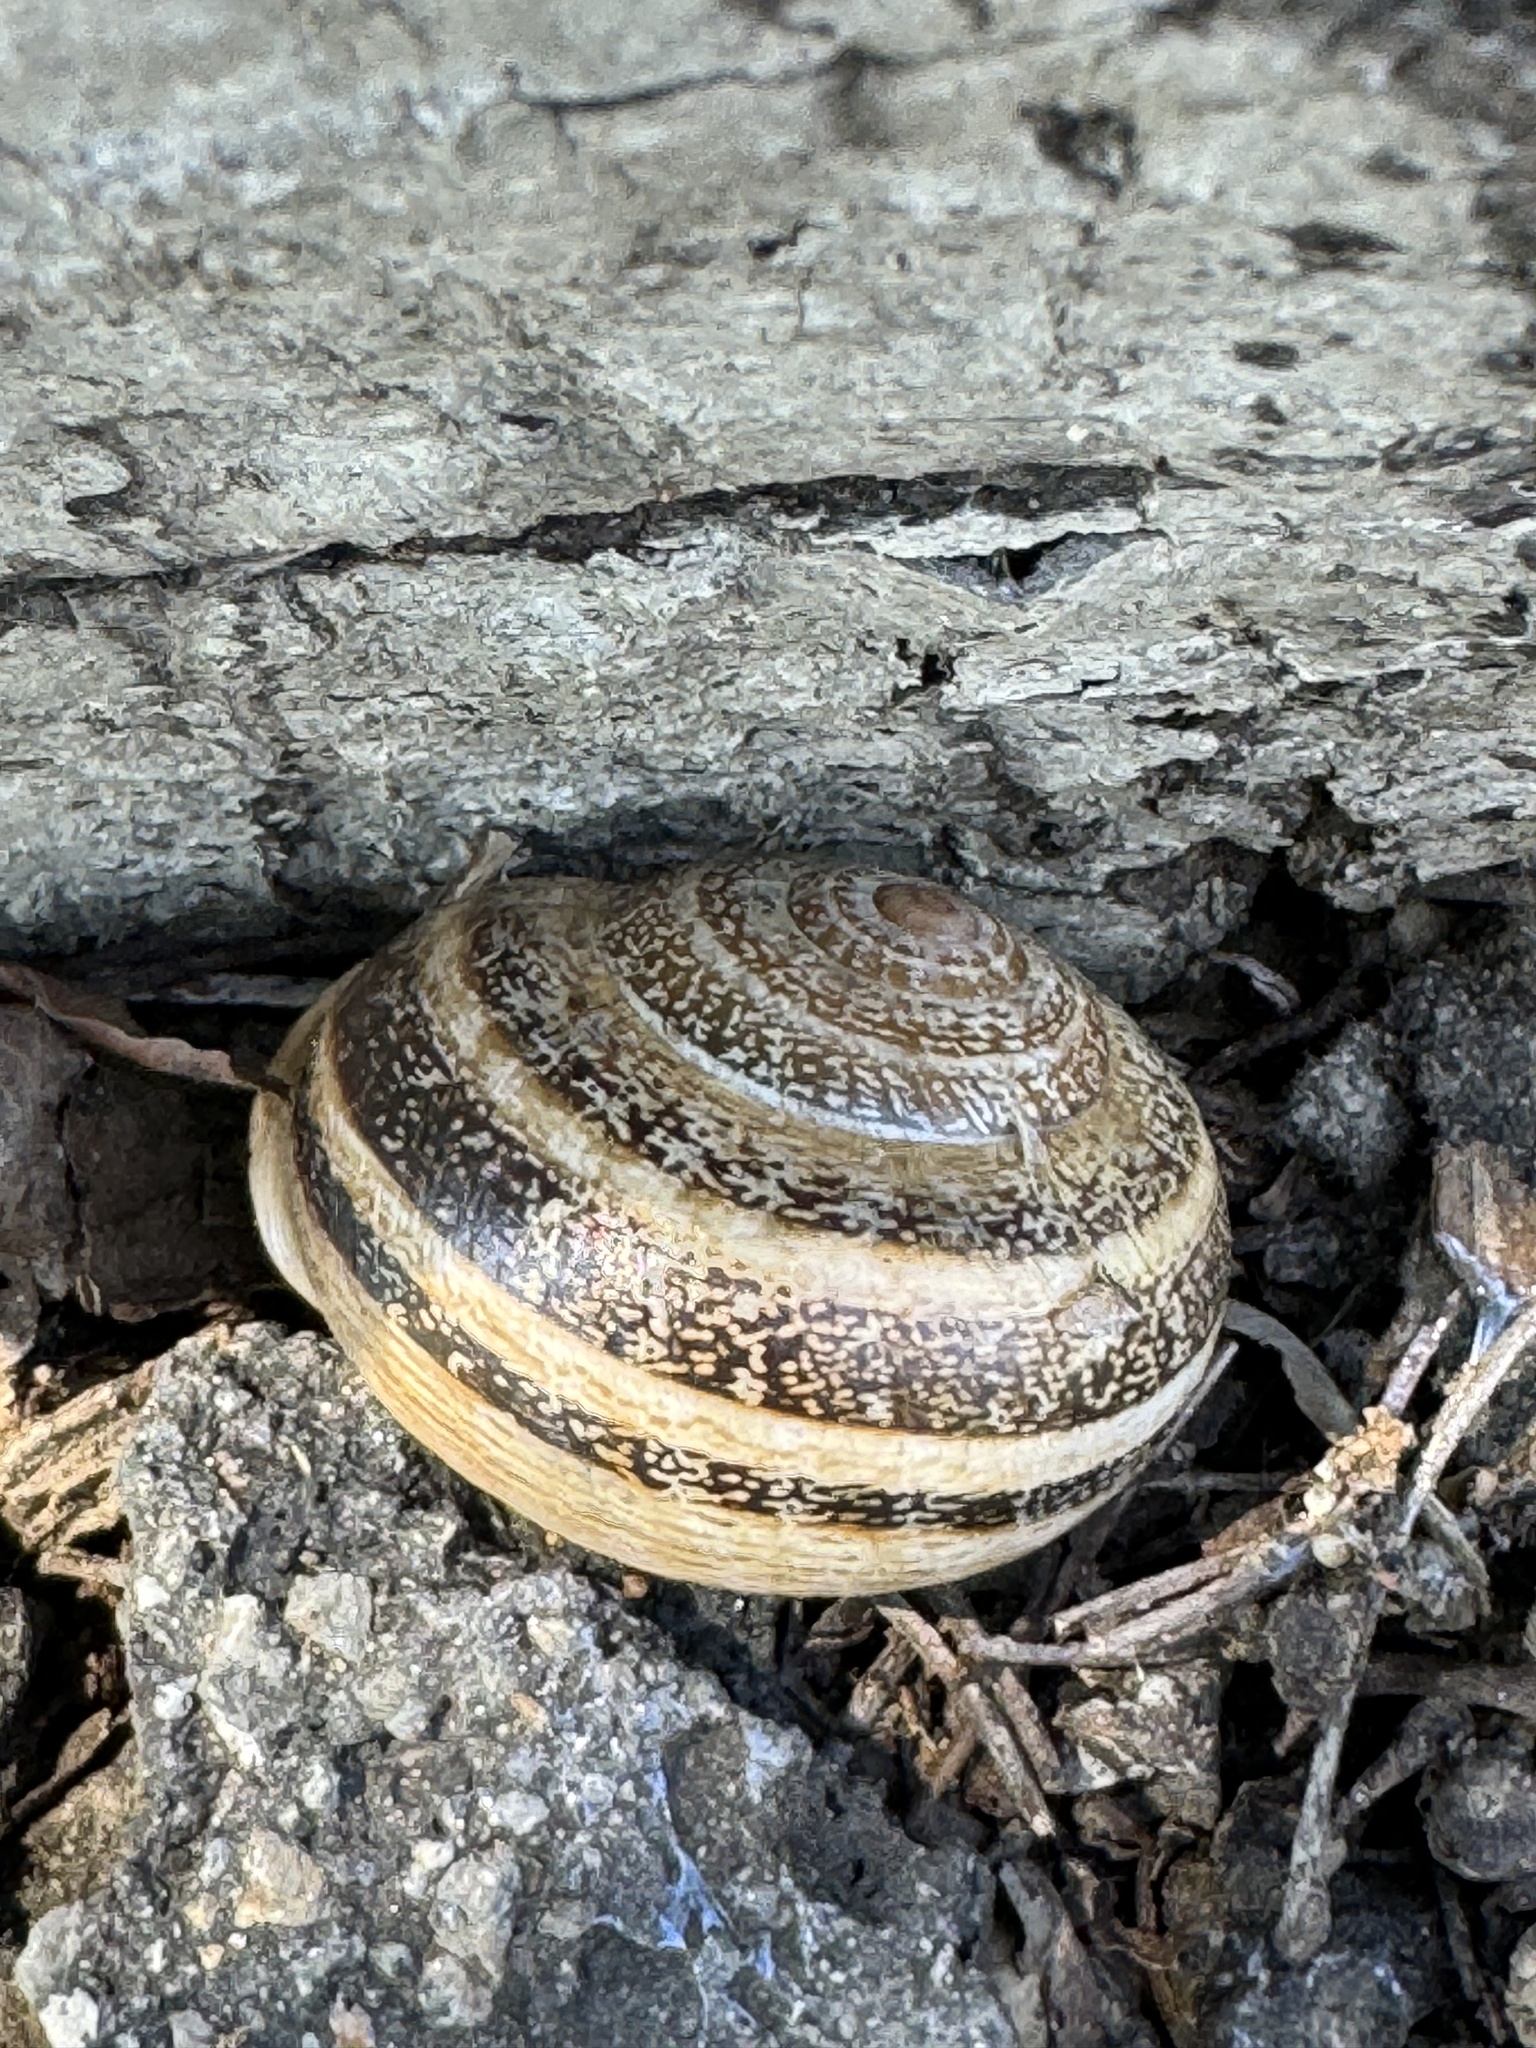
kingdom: Animalia
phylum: Mollusca
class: Gastropoda
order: Stylommatophora
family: Helicidae
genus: Otala
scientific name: Otala lactea
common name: Milk snail
